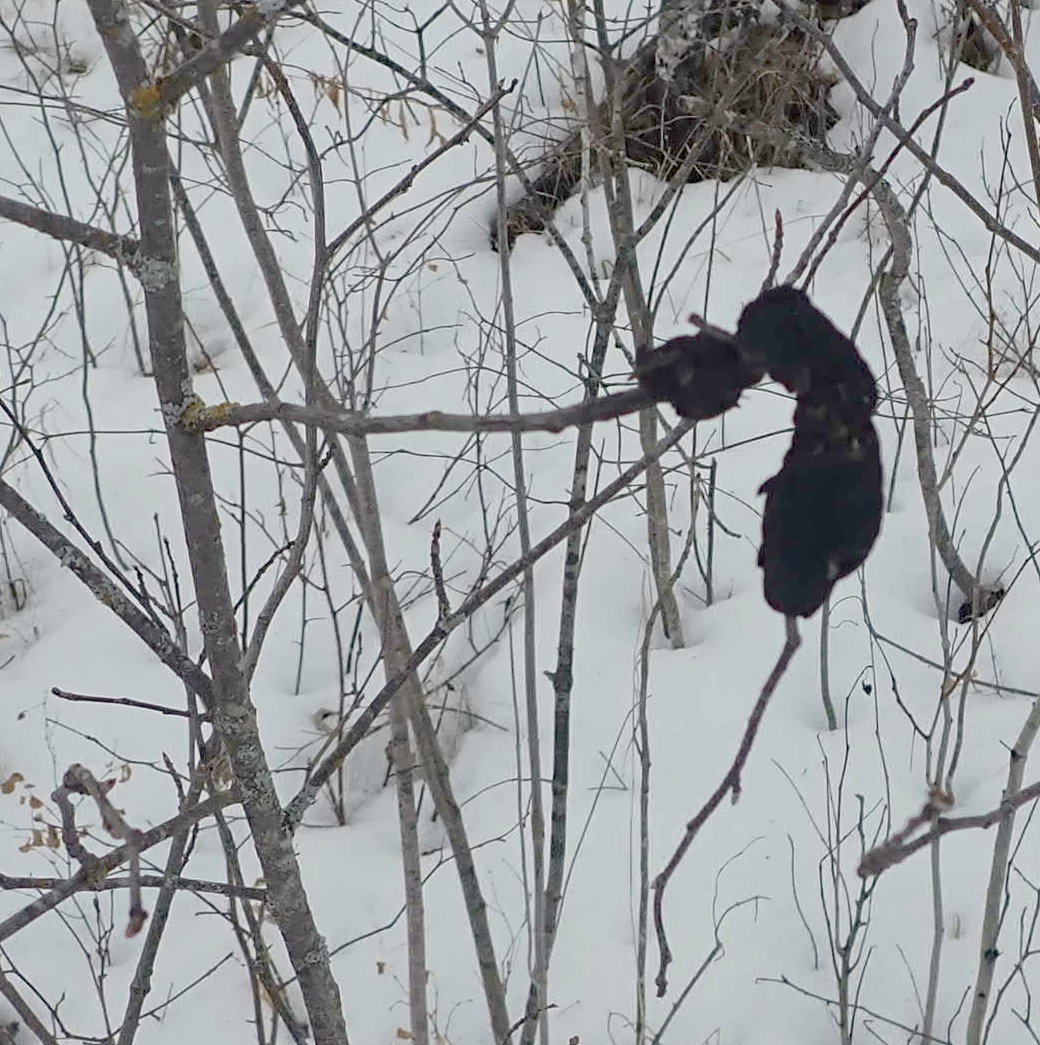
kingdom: Fungi
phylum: Ascomycota
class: Dothideomycetes
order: Venturiales
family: Venturiaceae
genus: Apiosporina
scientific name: Apiosporina morbosa
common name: Black knot
